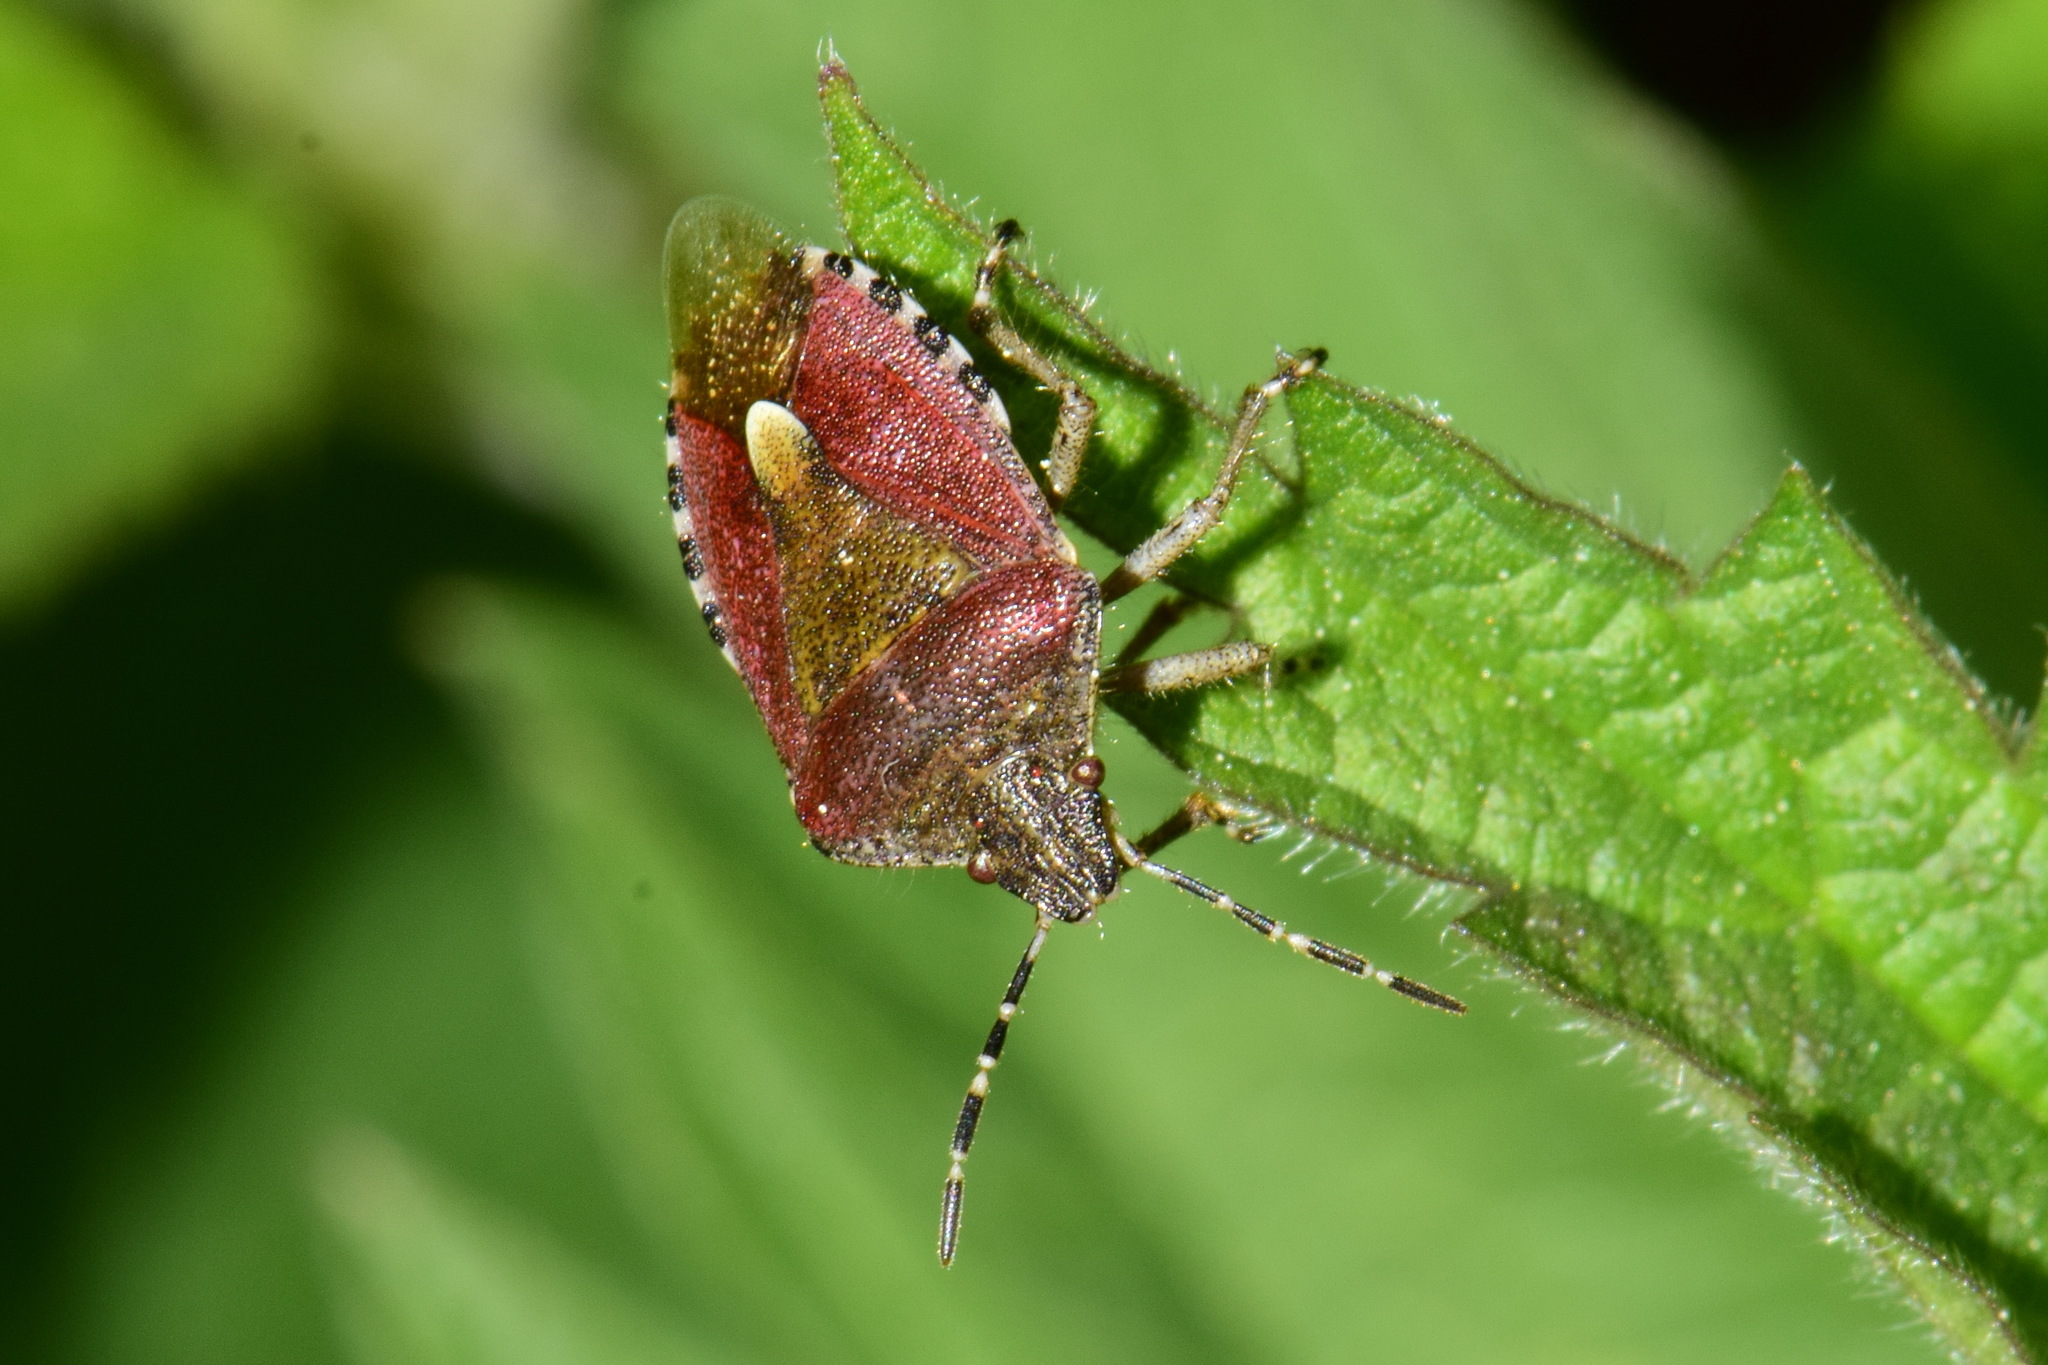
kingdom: Animalia
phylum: Arthropoda
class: Insecta
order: Hemiptera
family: Pentatomidae
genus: Dolycoris
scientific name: Dolycoris baccarum
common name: Sloe bug
